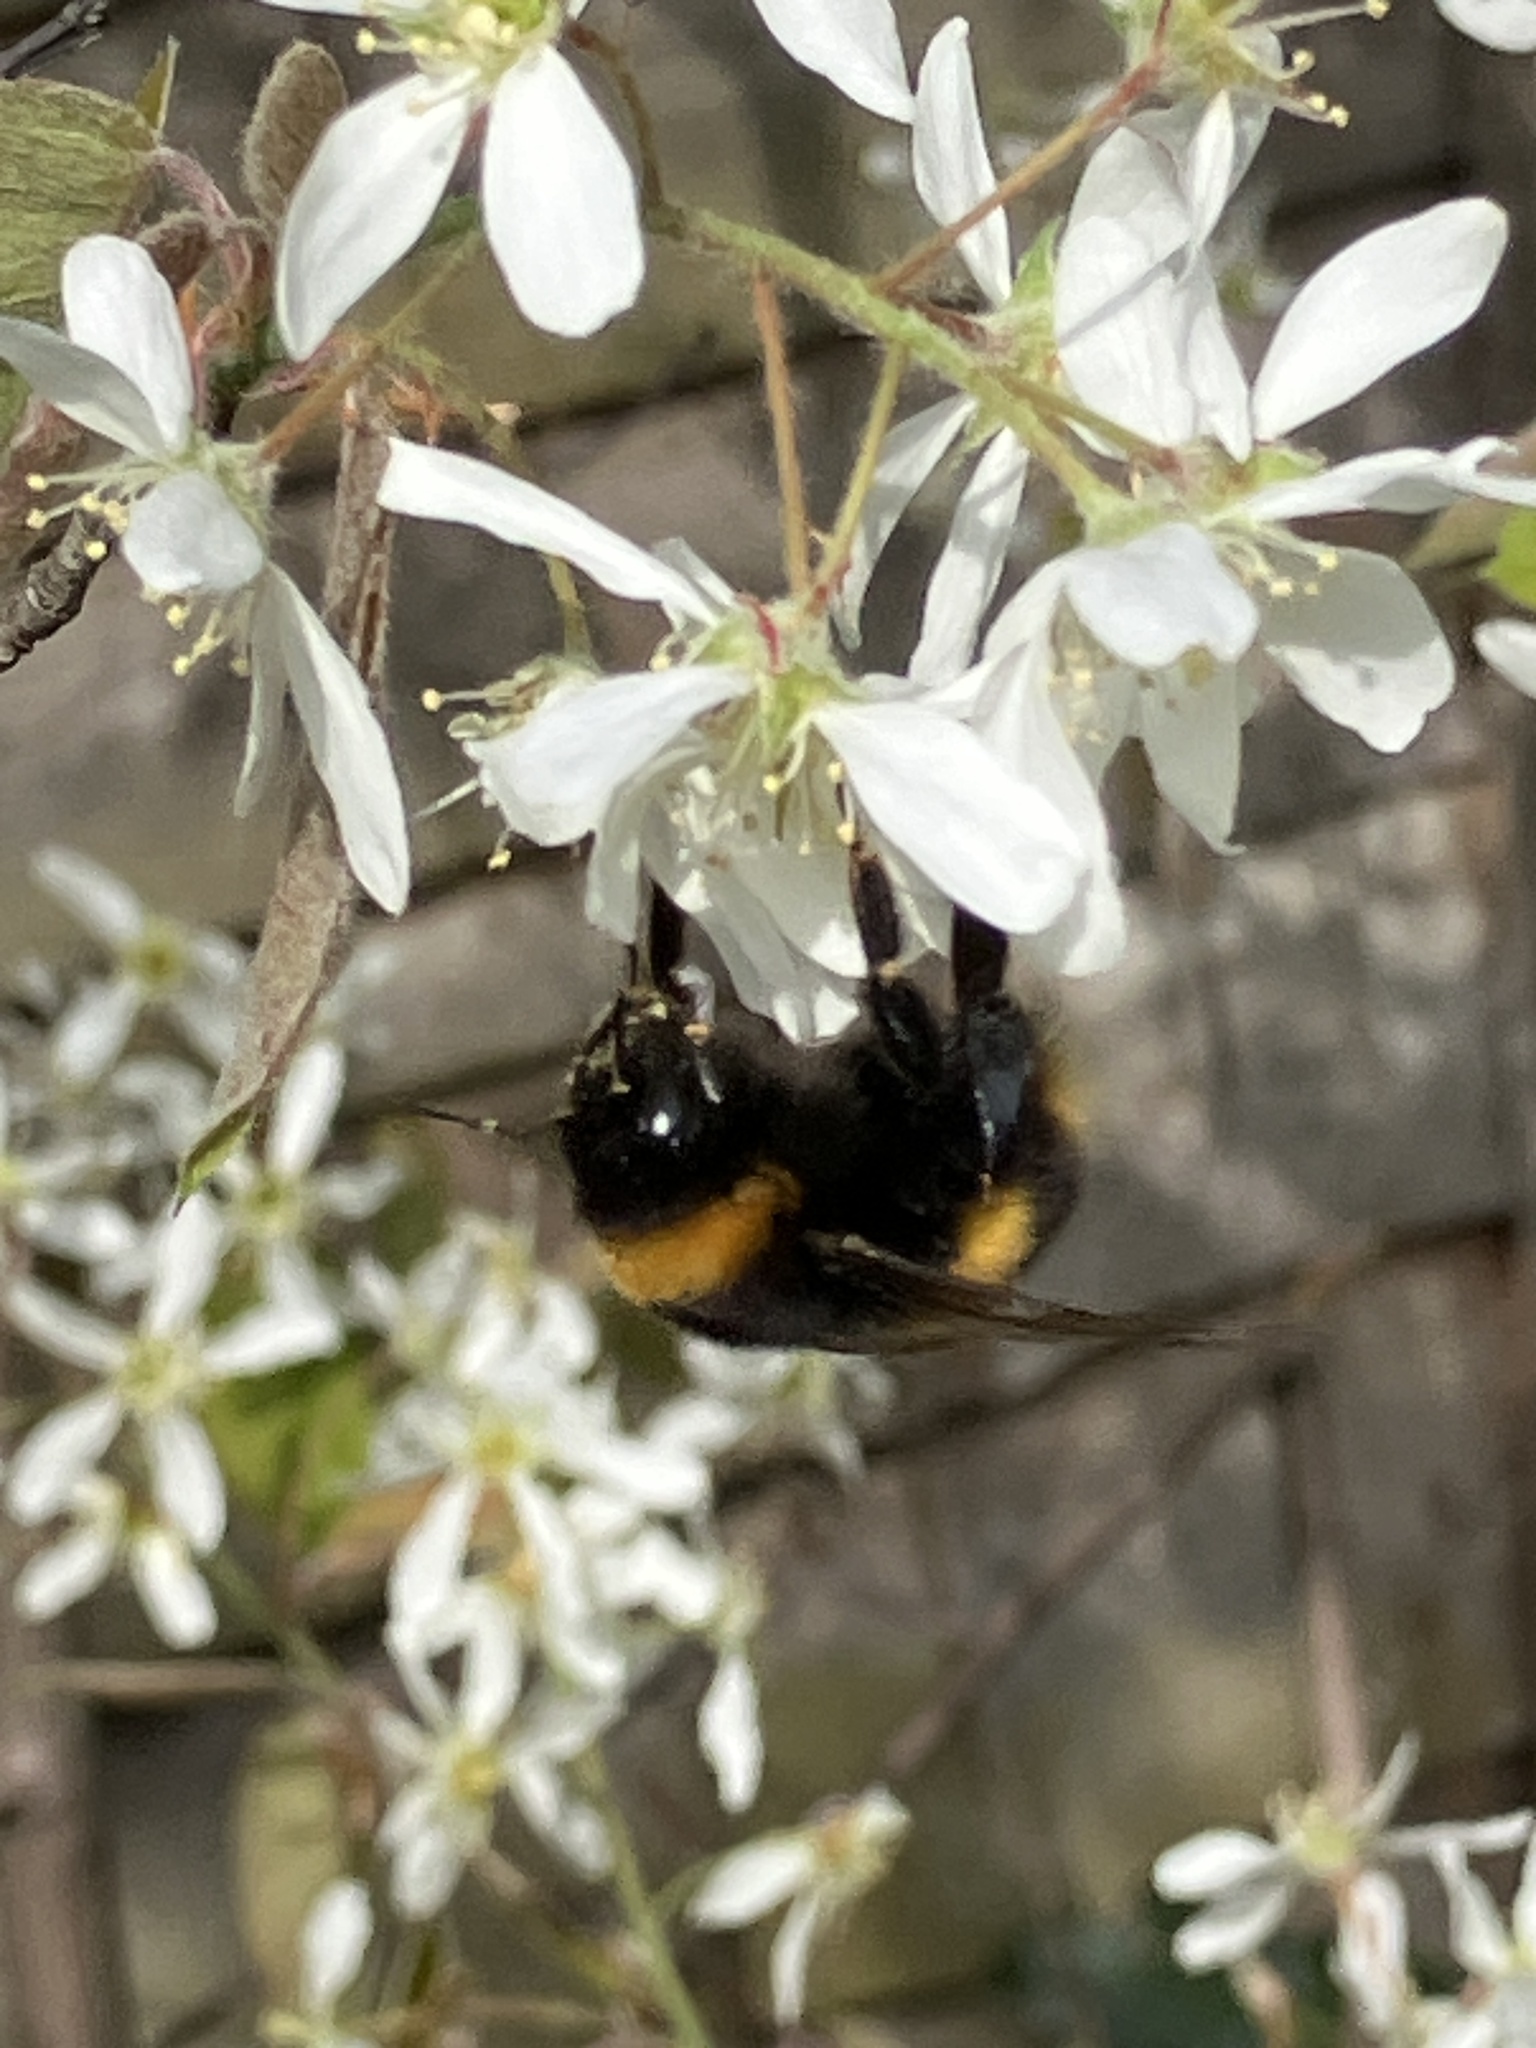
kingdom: Animalia
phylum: Arthropoda
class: Insecta
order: Hymenoptera
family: Apidae
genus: Bombus
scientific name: Bombus terrestris
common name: Buff-tailed bumblebee
